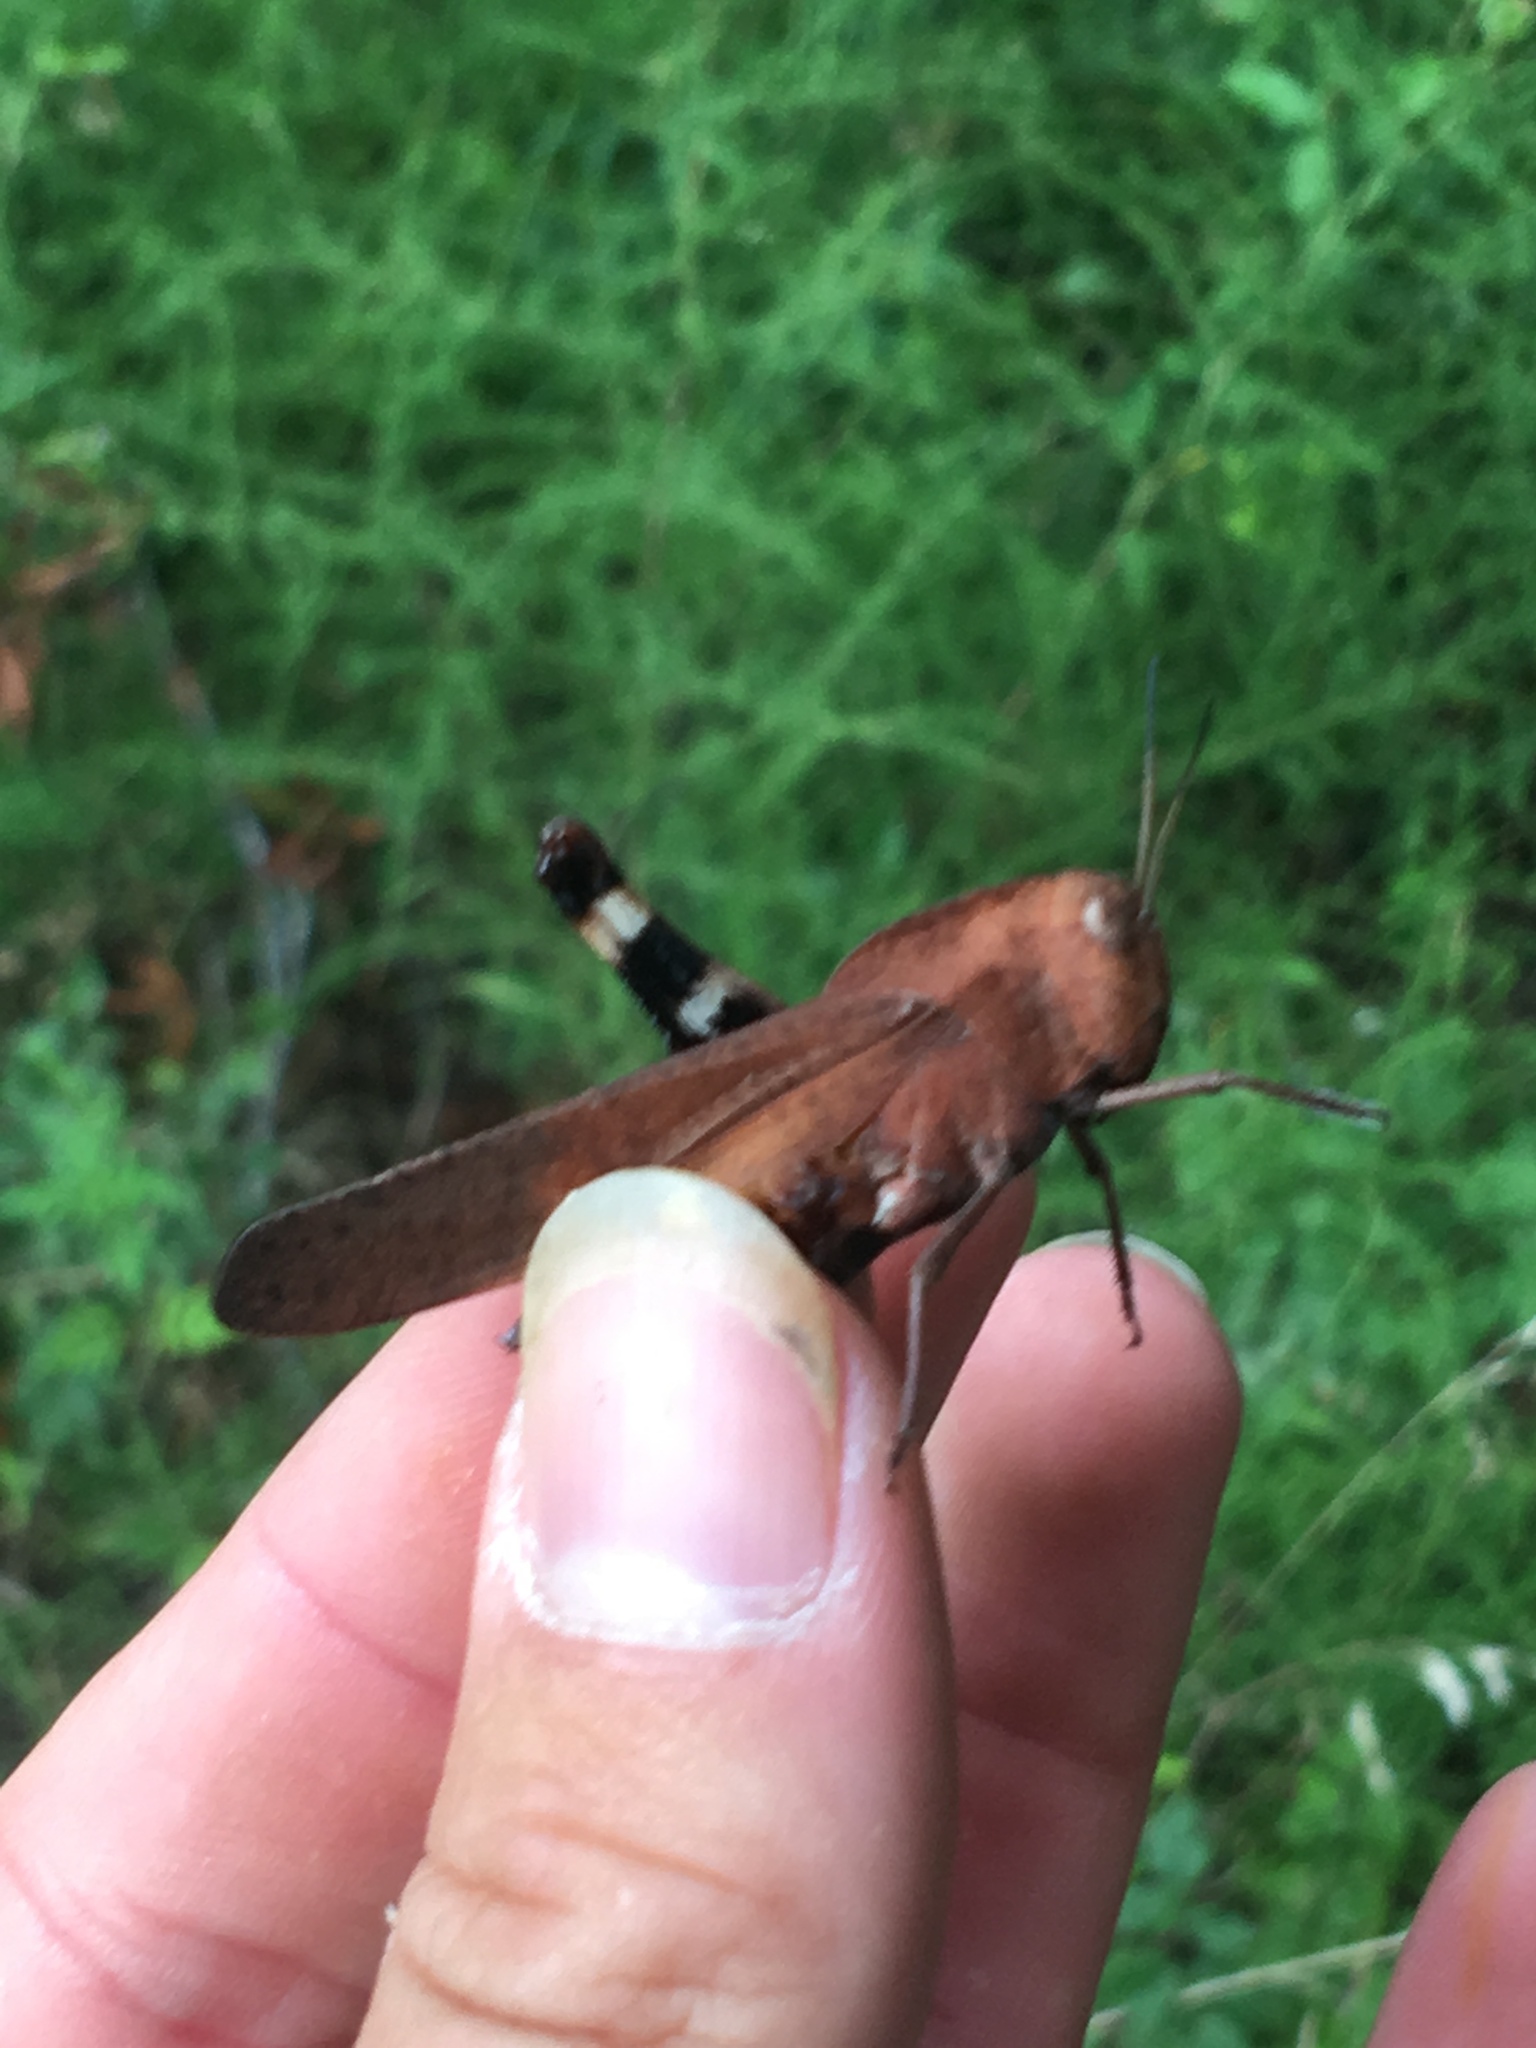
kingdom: Animalia
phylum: Arthropoda
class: Insecta
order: Orthoptera
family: Acrididae
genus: Dissosteira
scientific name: Dissosteira carolina
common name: Carolina grasshopper
